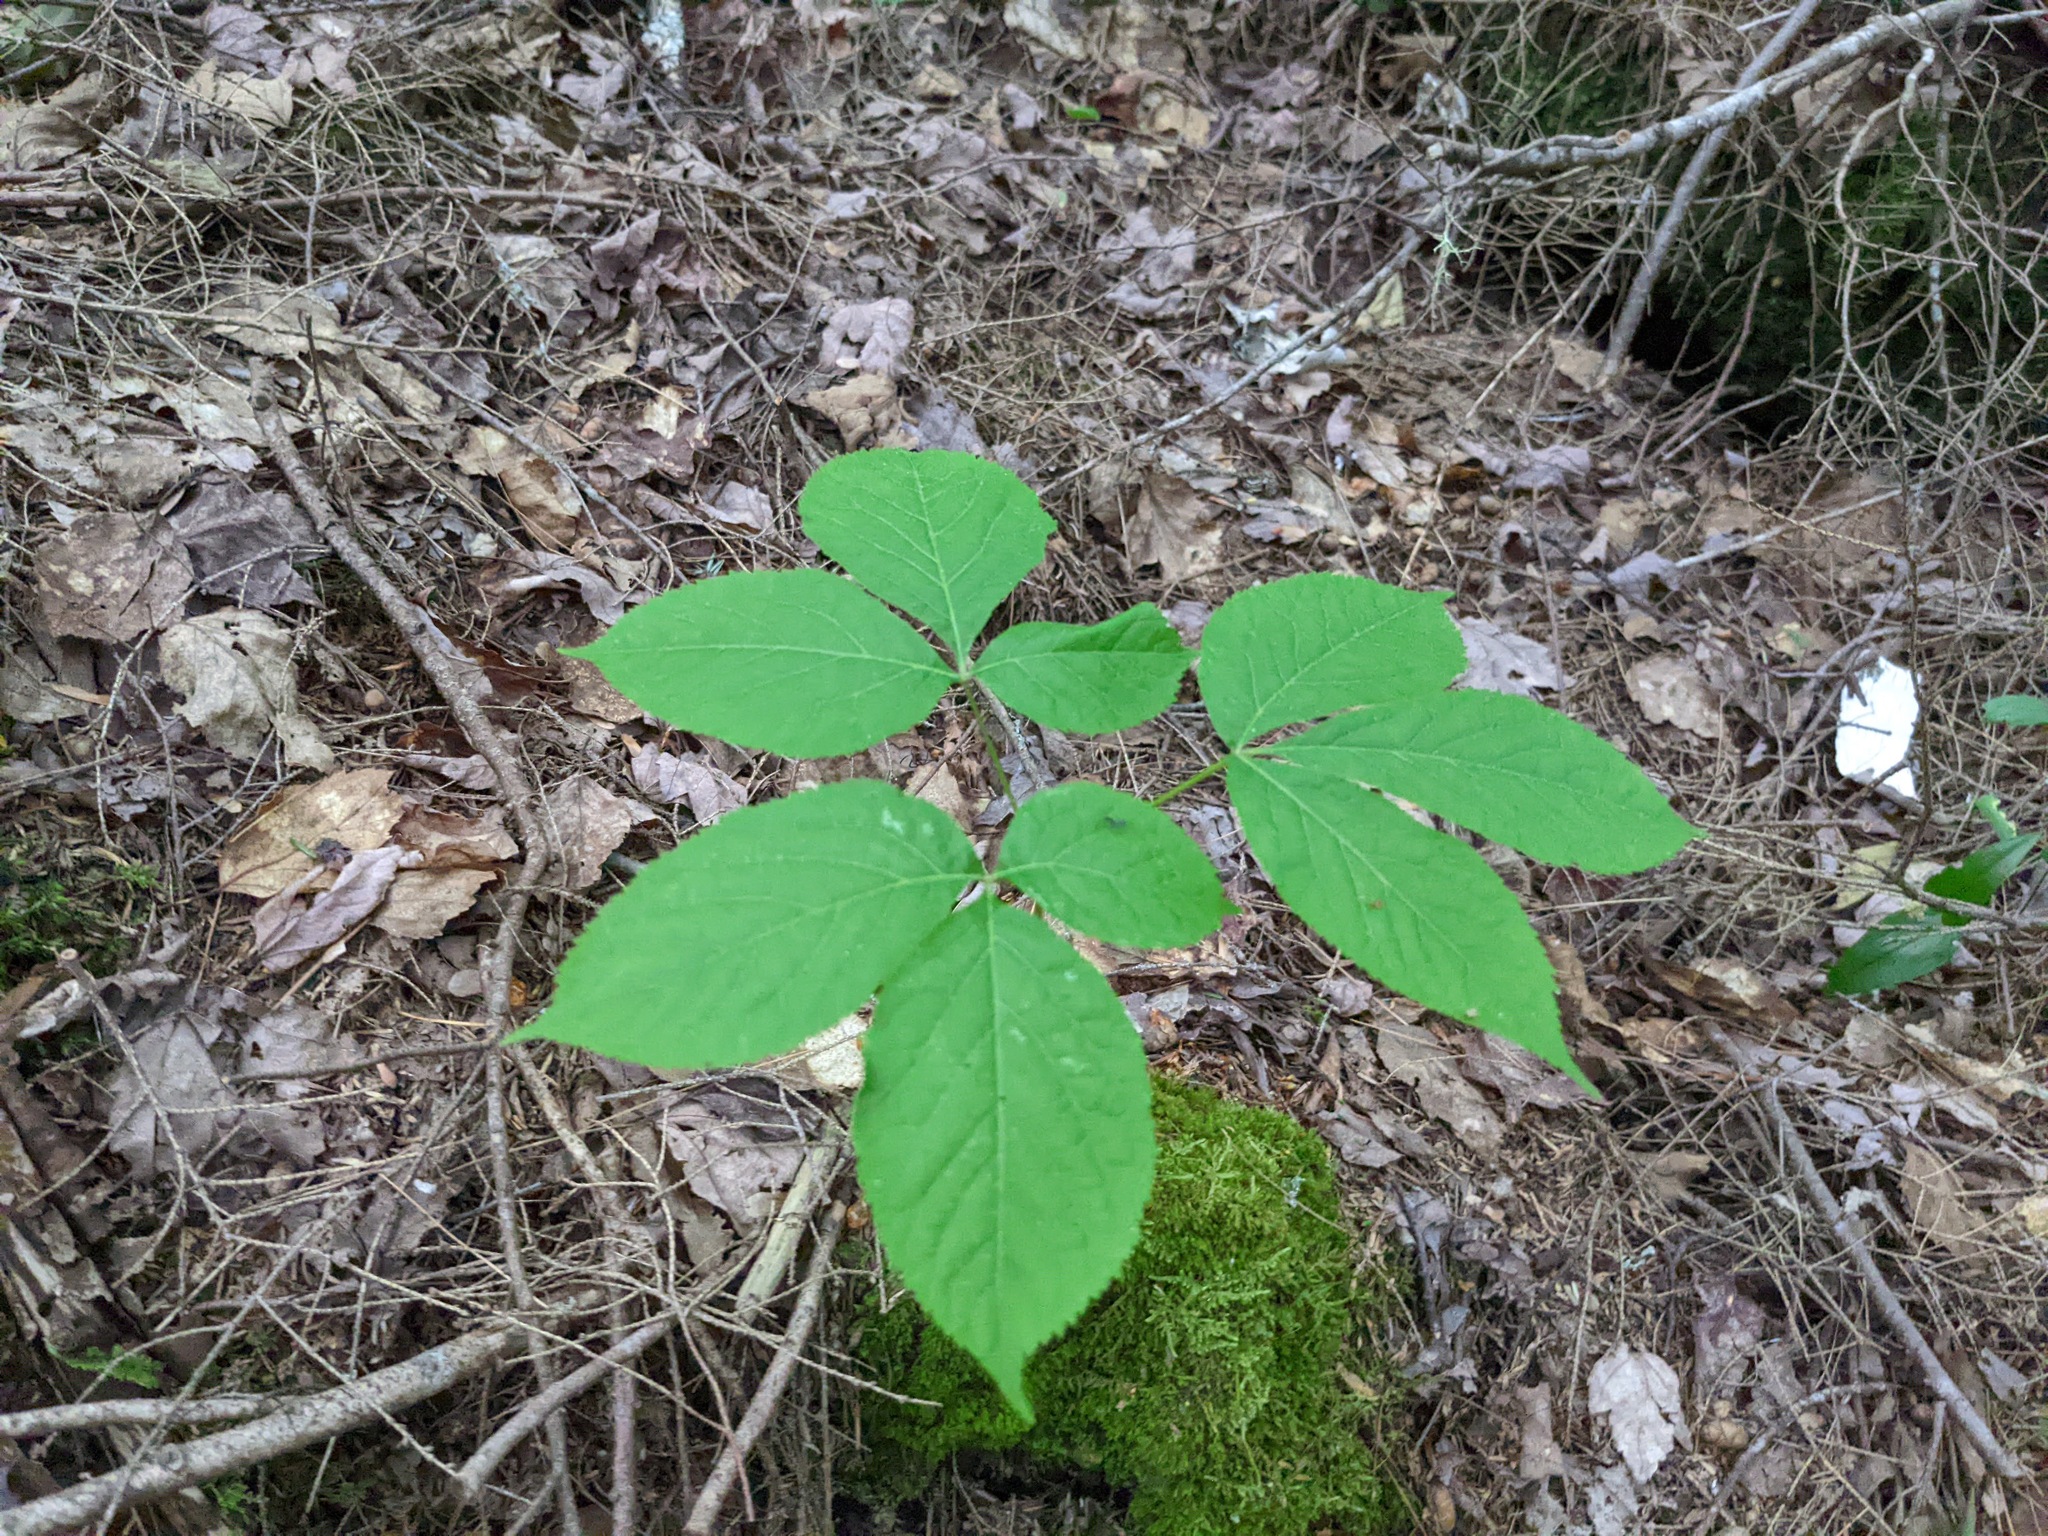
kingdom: Plantae
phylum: Tracheophyta
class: Magnoliopsida
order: Apiales
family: Araliaceae
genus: Aralia
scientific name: Aralia nudicaulis
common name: Wild sarsaparilla
